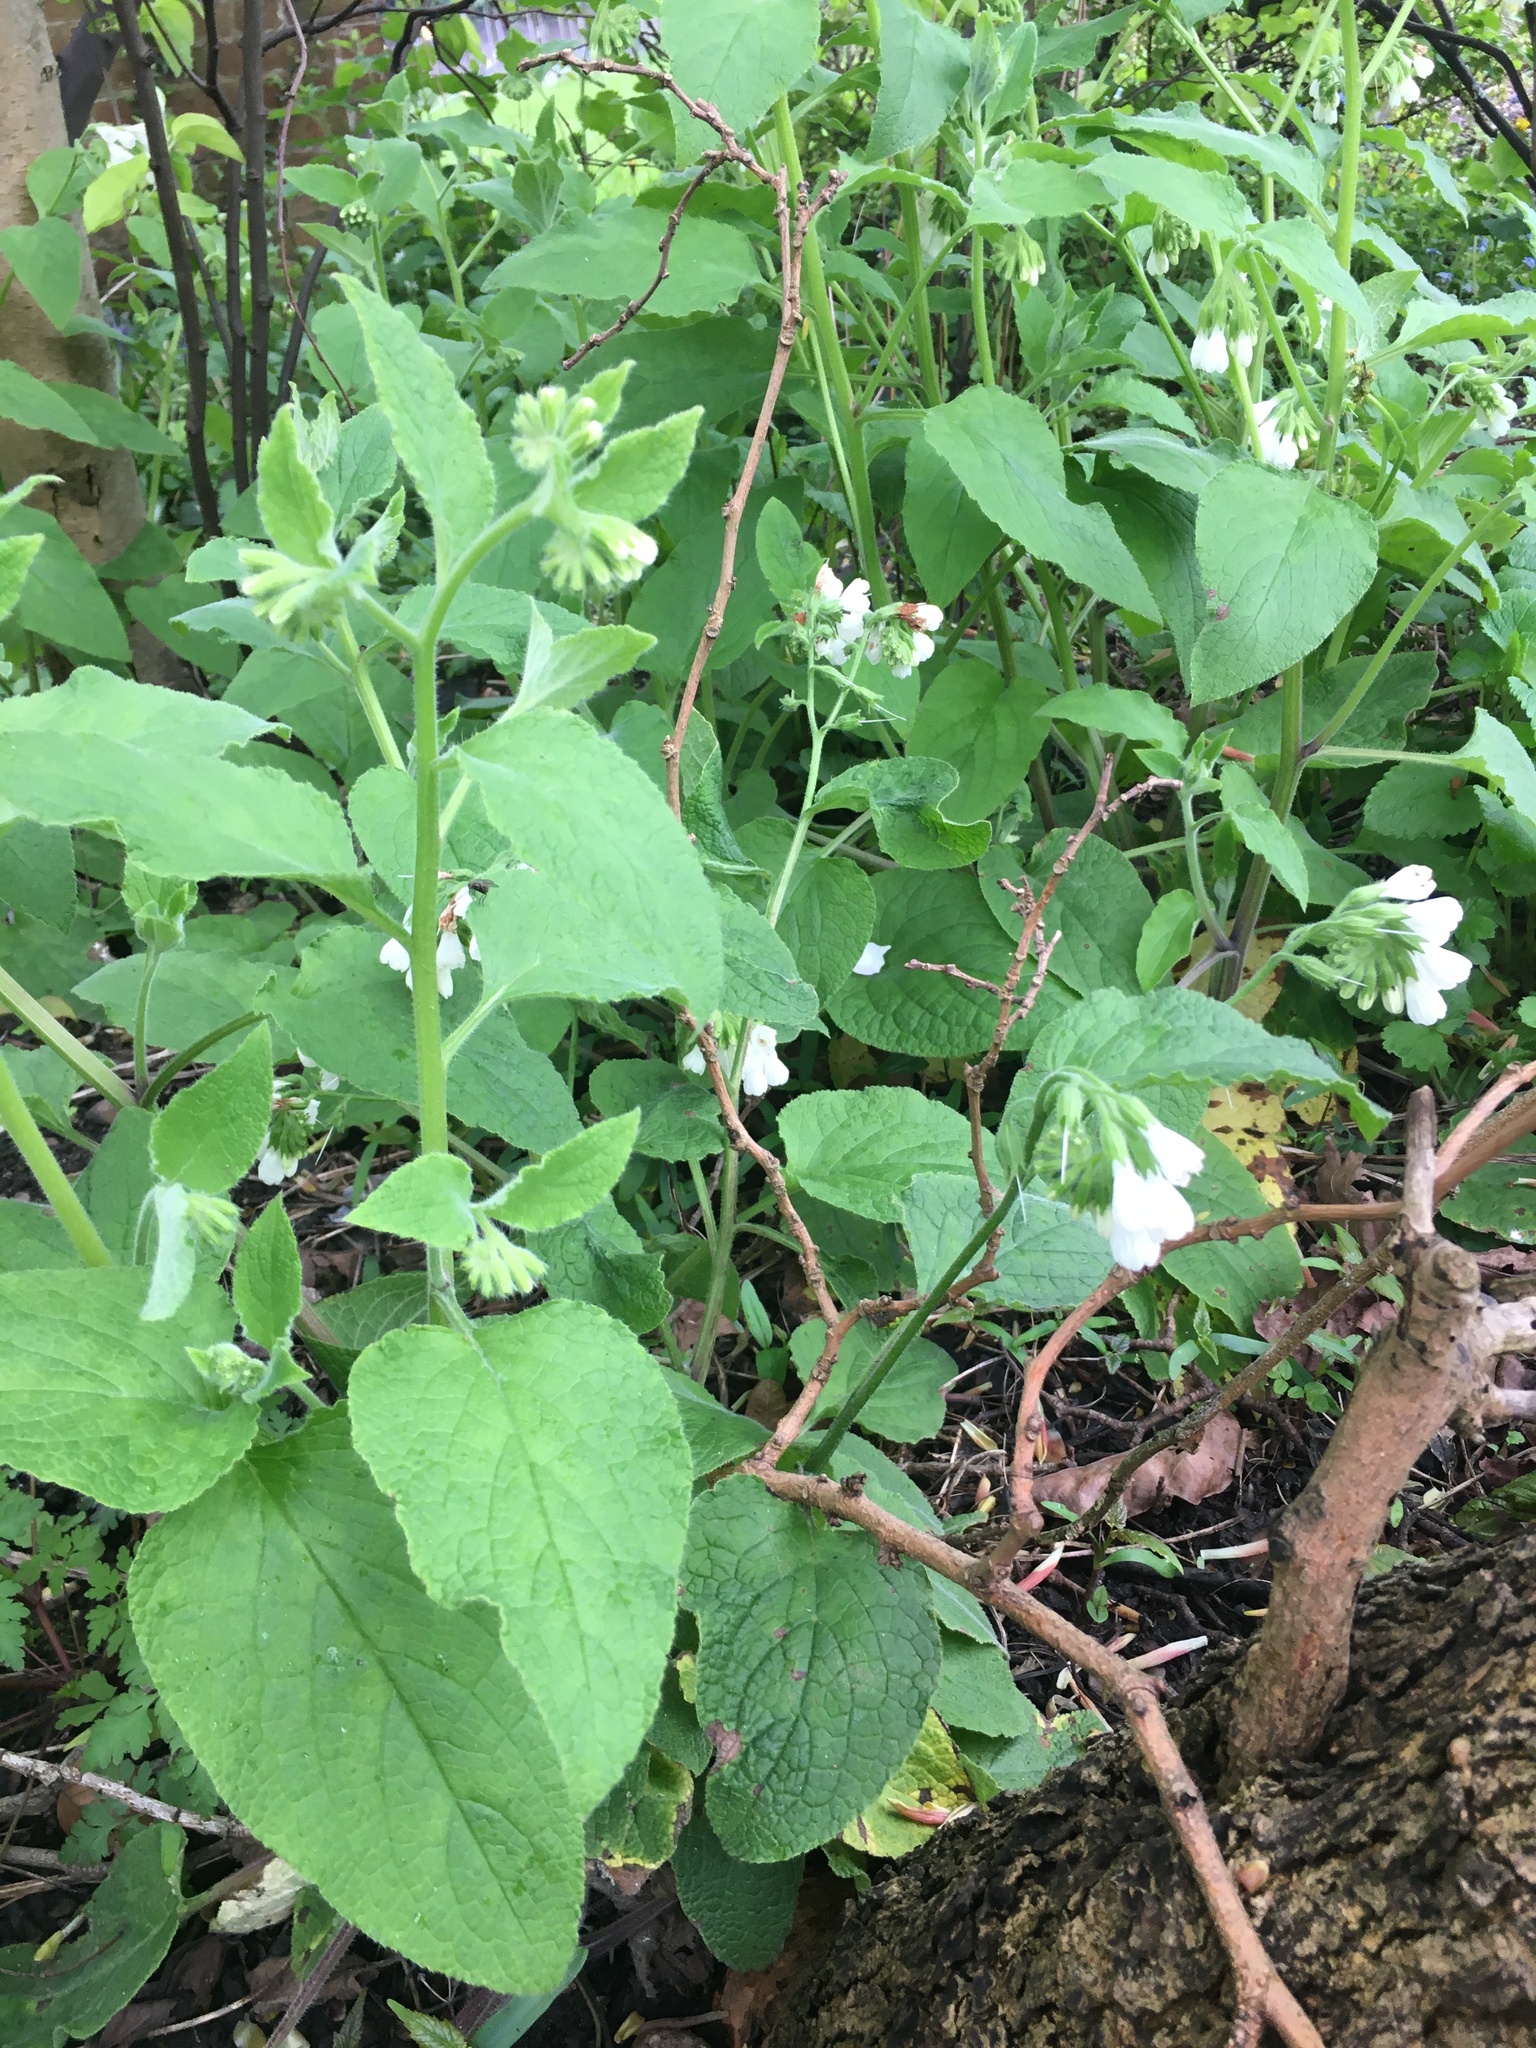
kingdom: Plantae
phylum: Tracheophyta
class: Magnoliopsida
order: Boraginales
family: Boraginaceae
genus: Symphytum
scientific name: Symphytum orientale
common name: White comfrey
